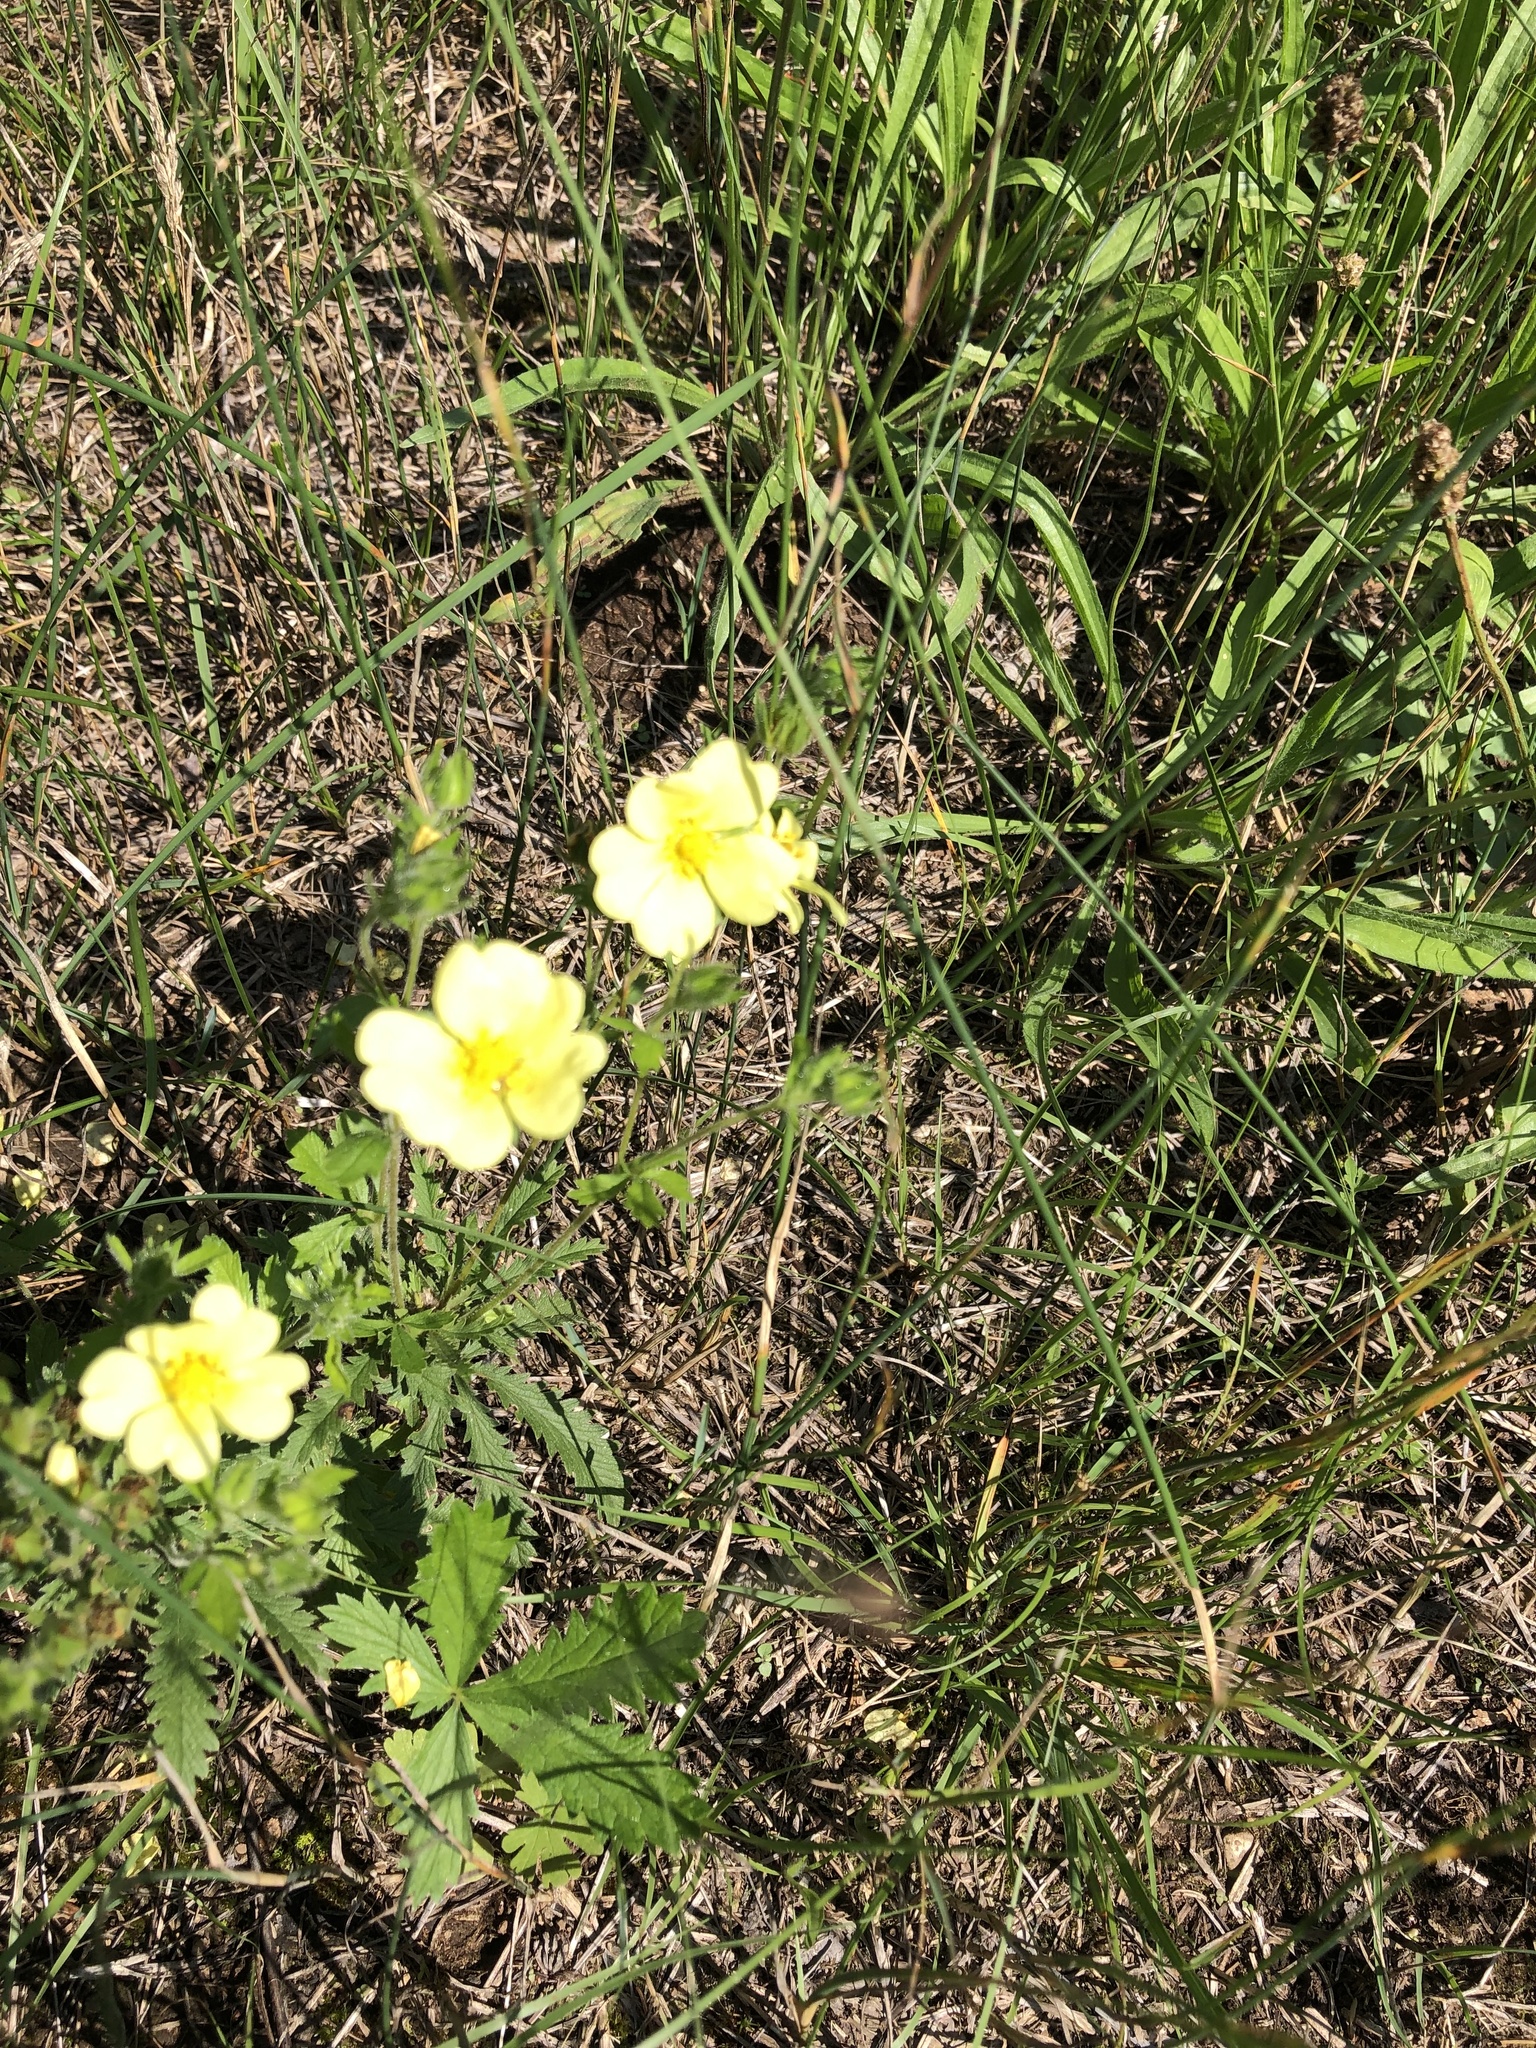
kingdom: Plantae
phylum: Tracheophyta
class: Magnoliopsida
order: Rosales
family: Rosaceae
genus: Potentilla
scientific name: Potentilla recta
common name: Sulphur cinquefoil
